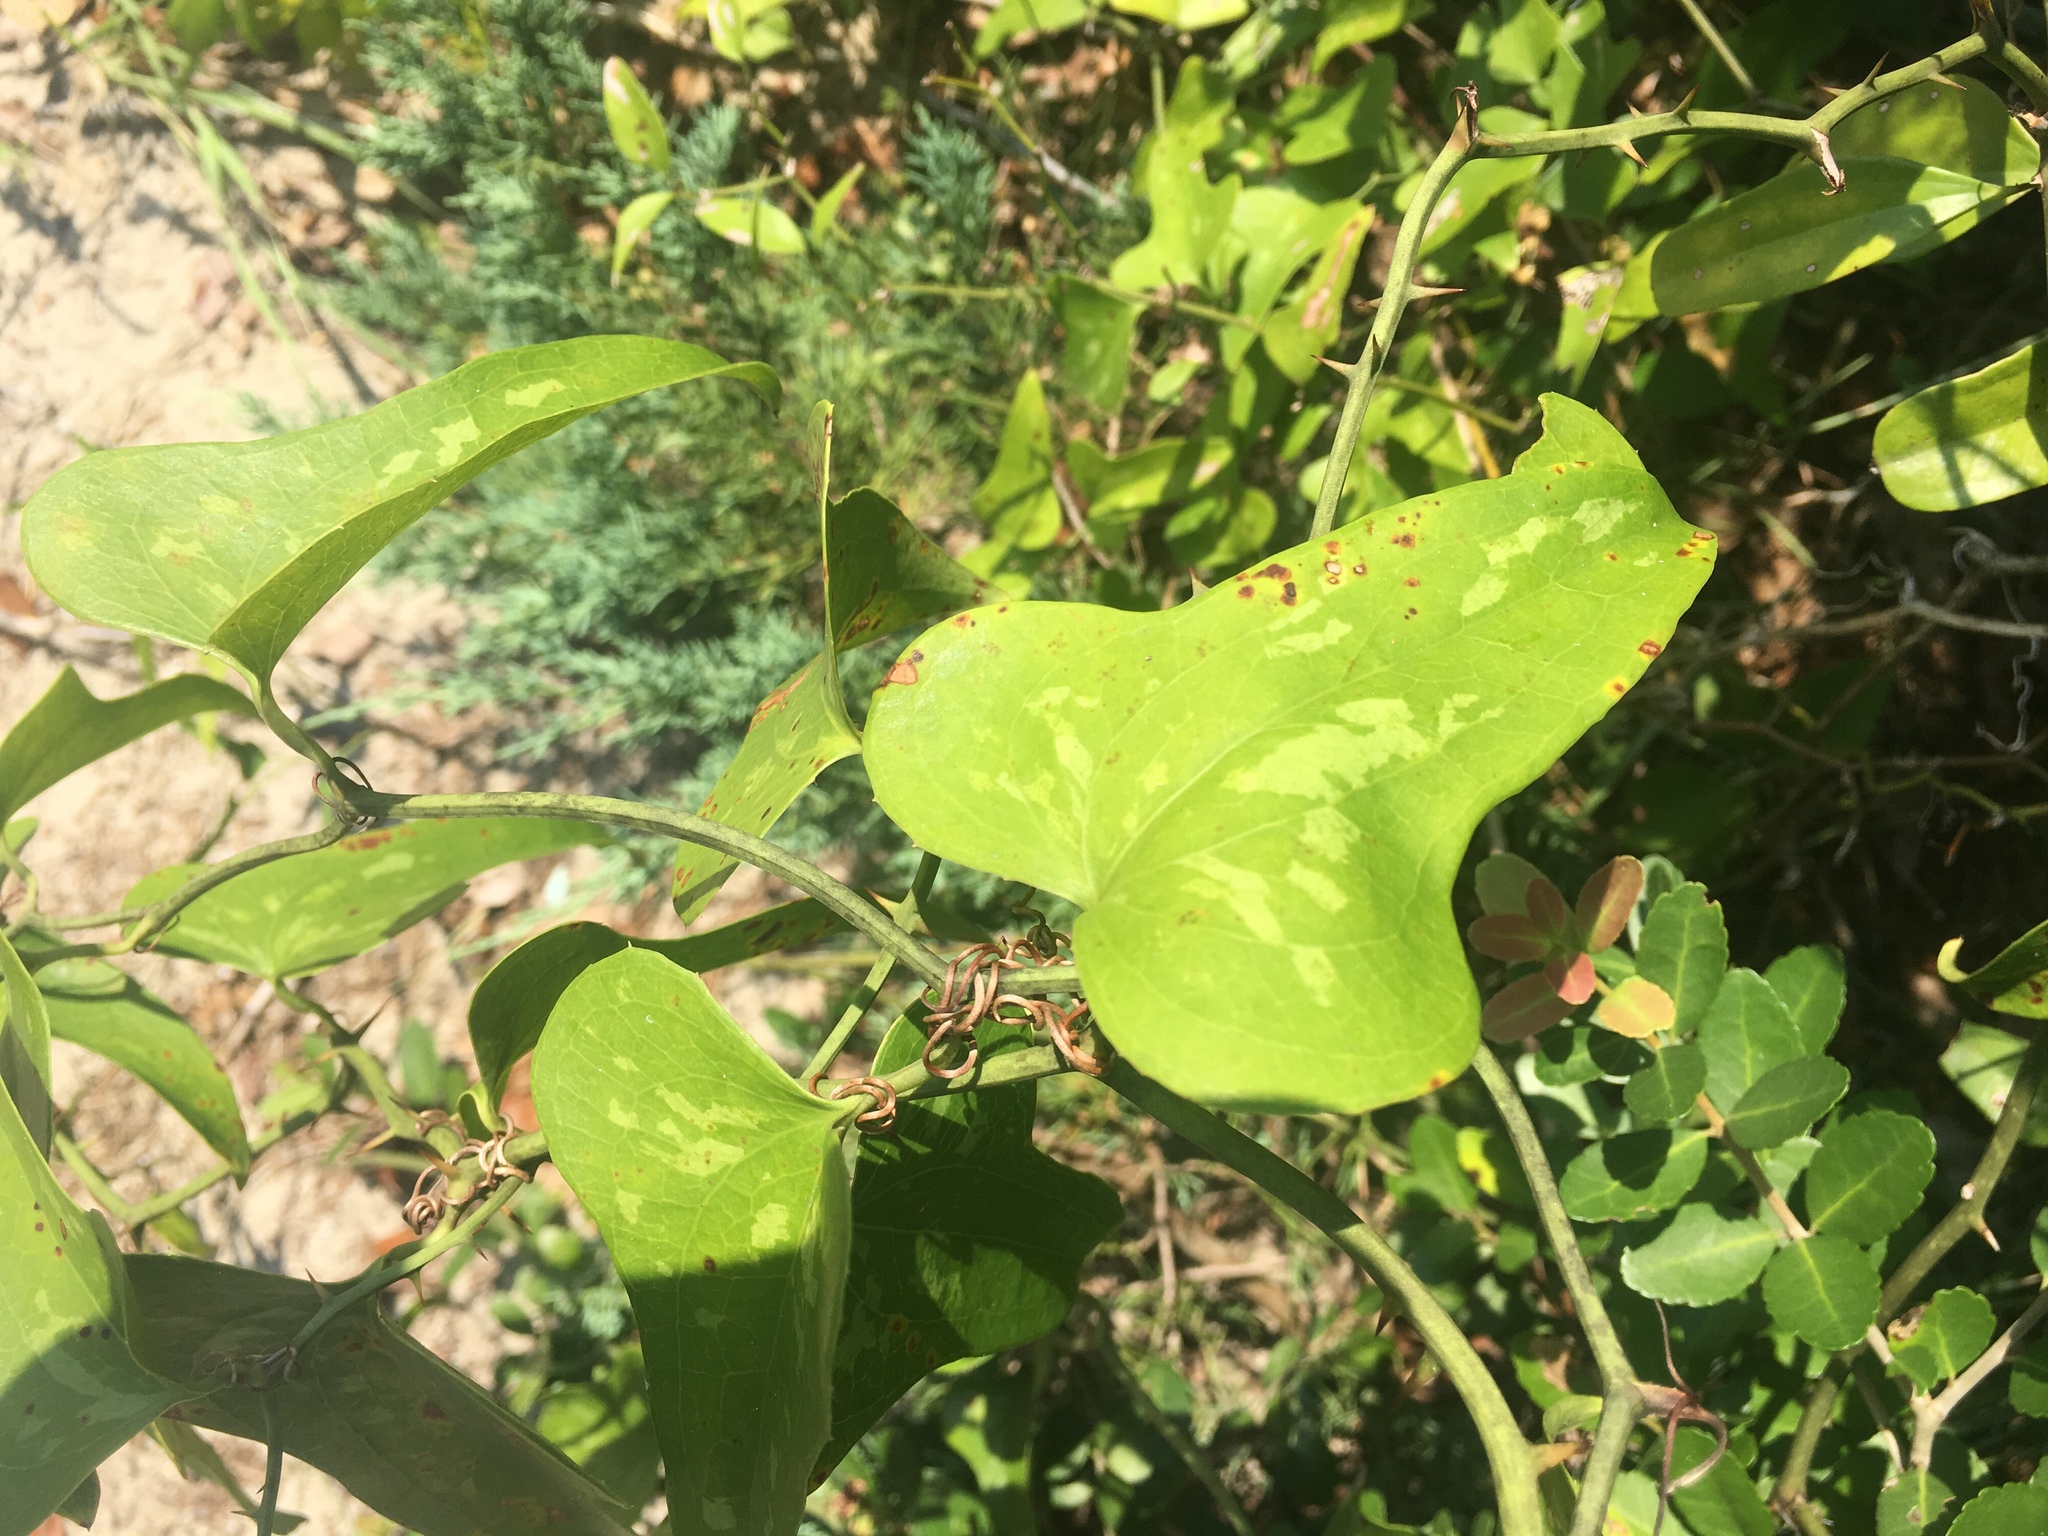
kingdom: Plantae
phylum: Tracheophyta
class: Liliopsida
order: Liliales
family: Smilacaceae
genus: Smilax
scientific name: Smilax bona-nox
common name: Catbrier
